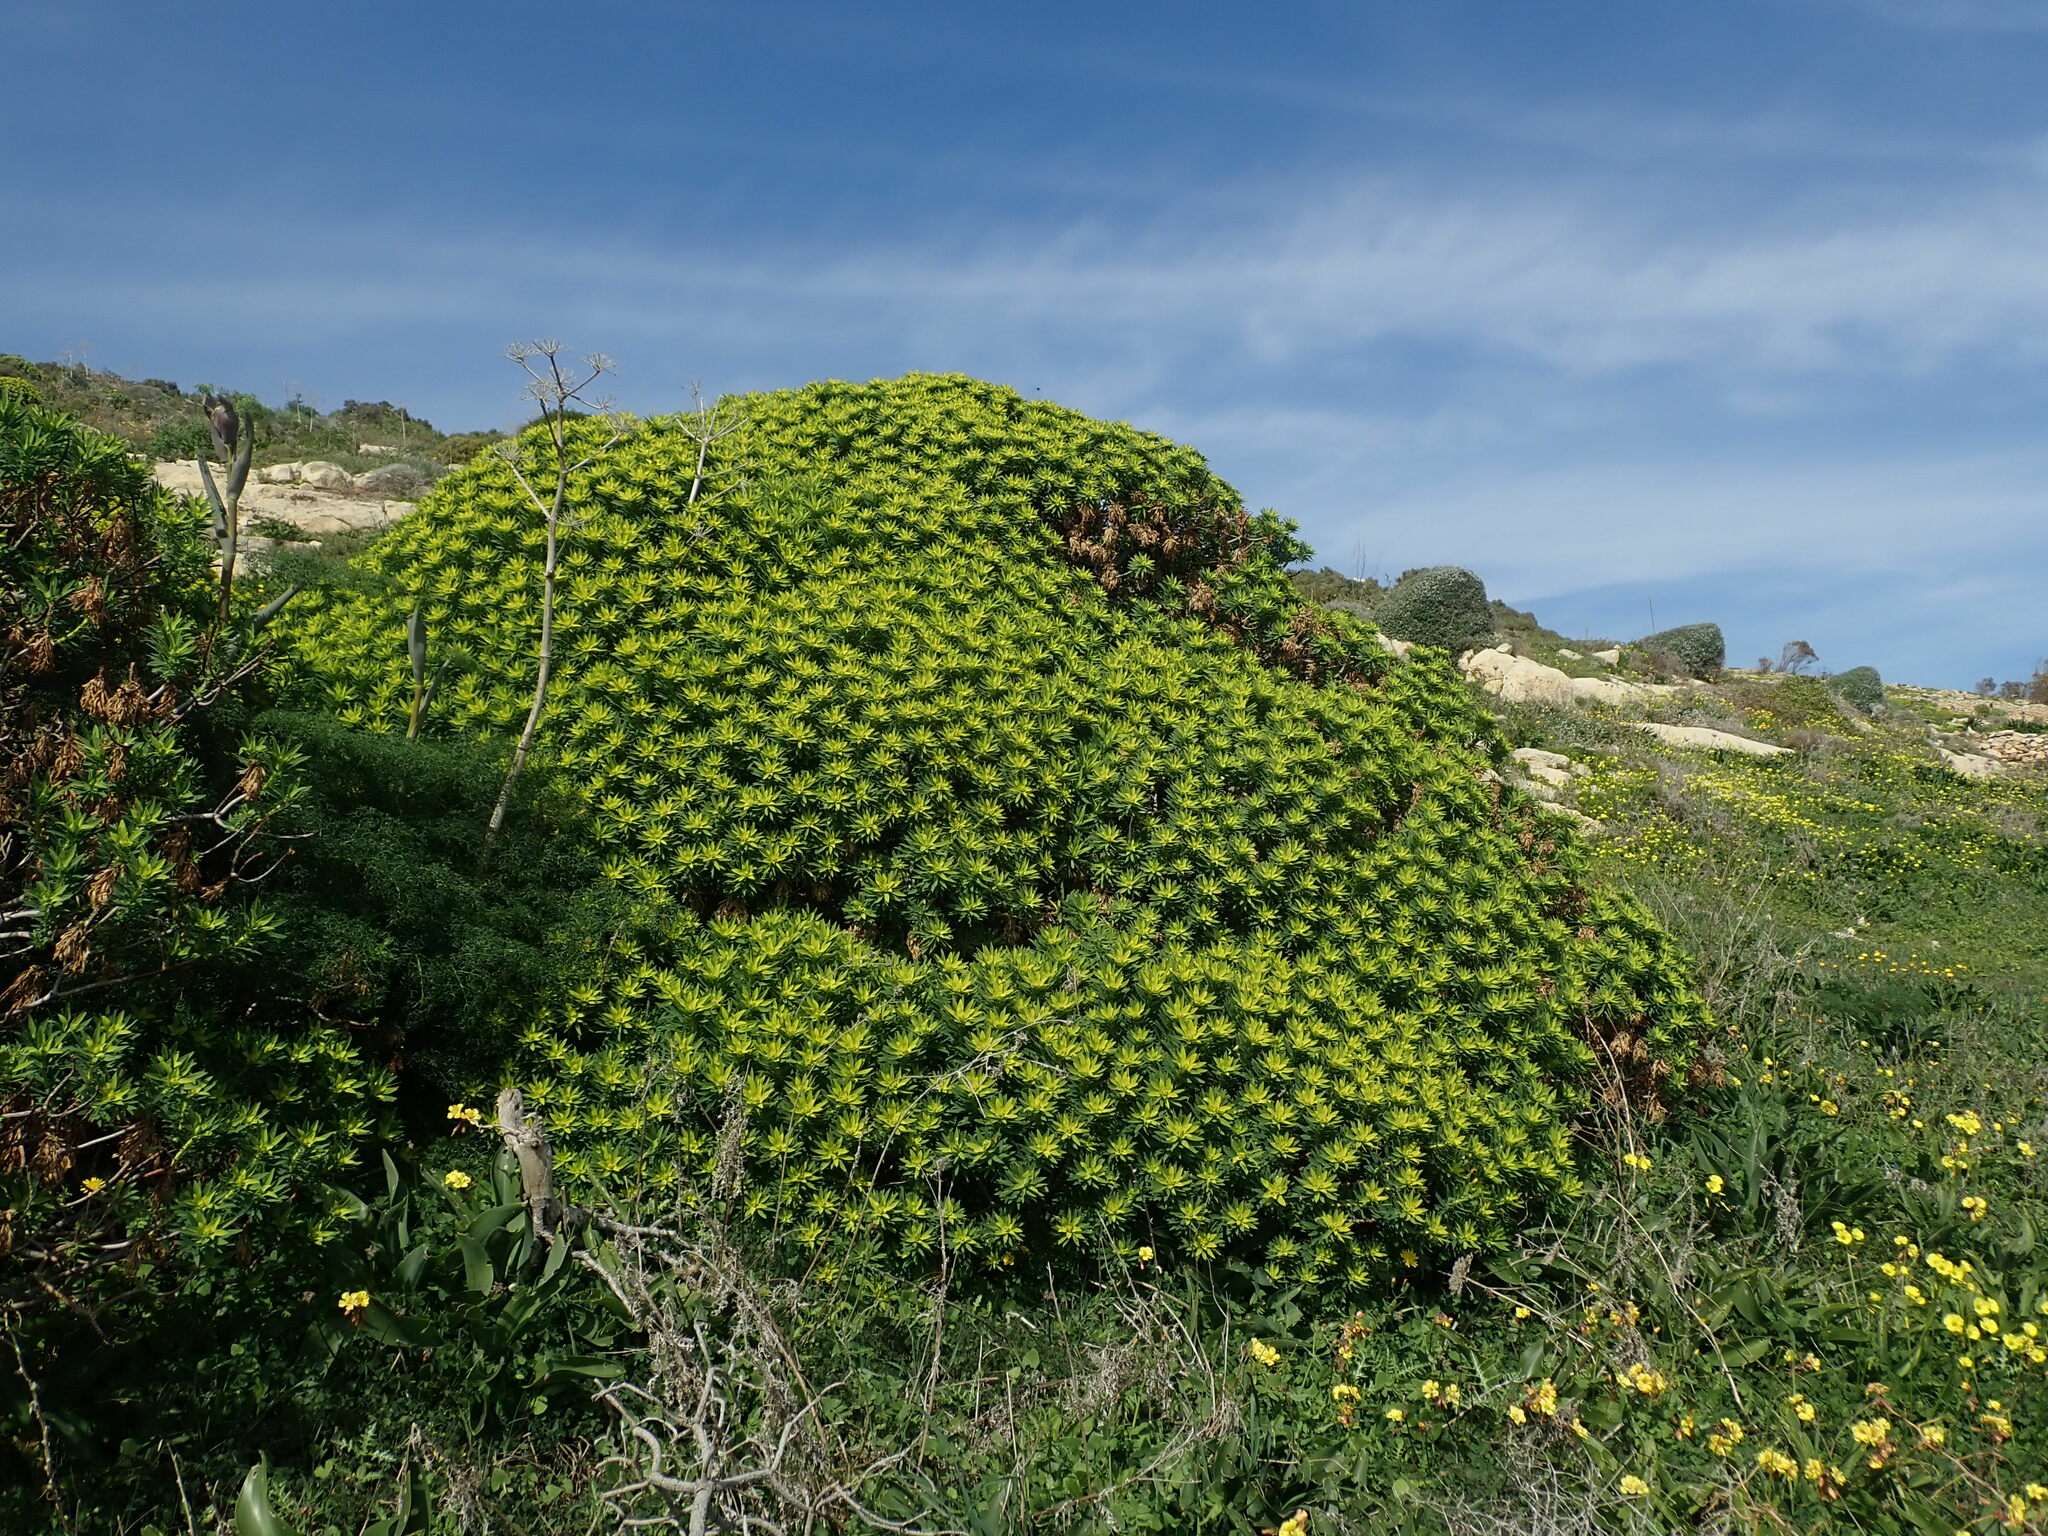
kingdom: Plantae
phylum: Tracheophyta
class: Magnoliopsida
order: Malpighiales
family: Euphorbiaceae
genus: Euphorbia
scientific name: Euphorbia dendroides
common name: Tree spurge
